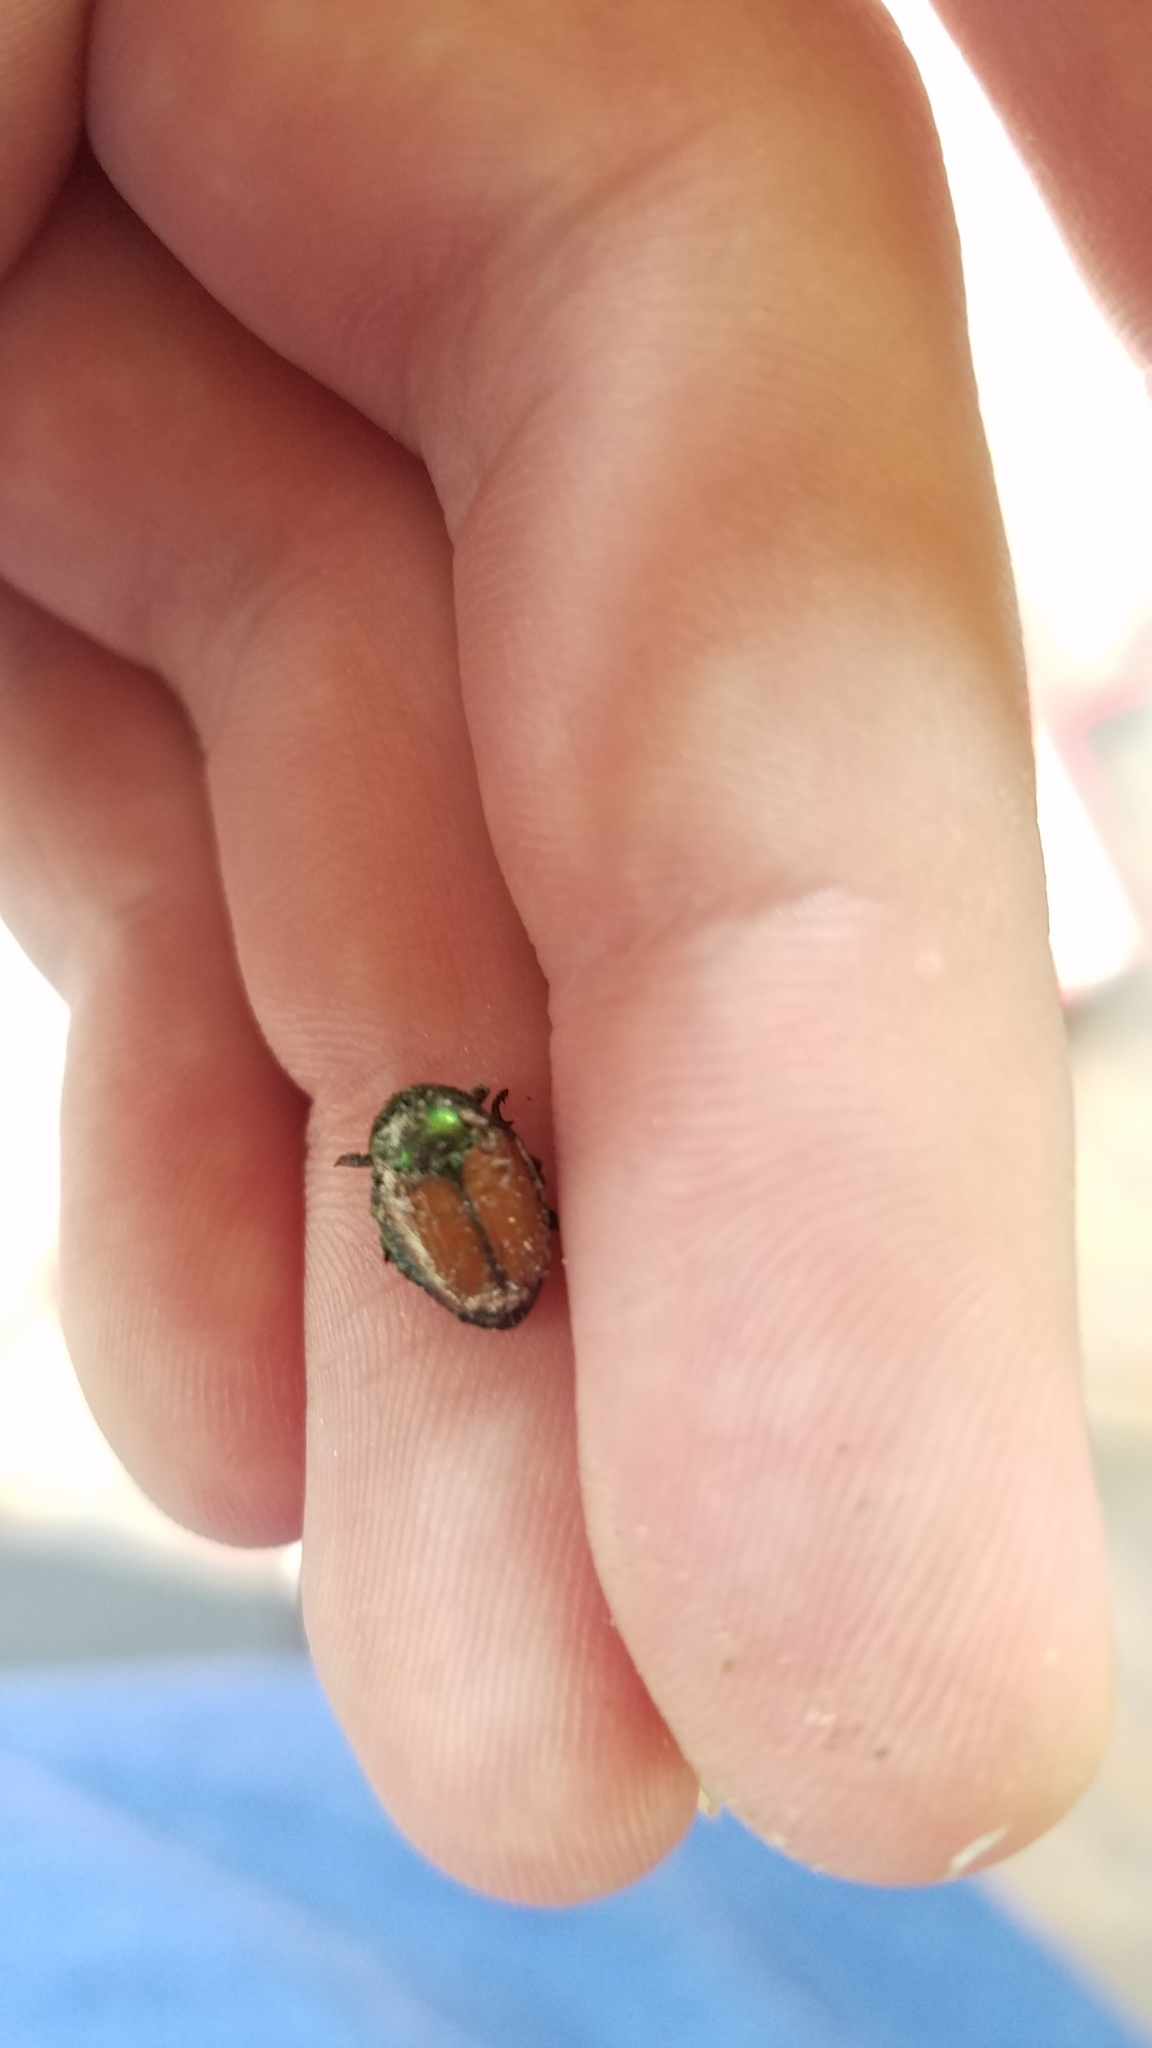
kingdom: Animalia
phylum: Arthropoda
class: Insecta
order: Coleoptera
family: Scarabaeidae
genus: Popillia
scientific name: Popillia japonica
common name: Japanese beetle
